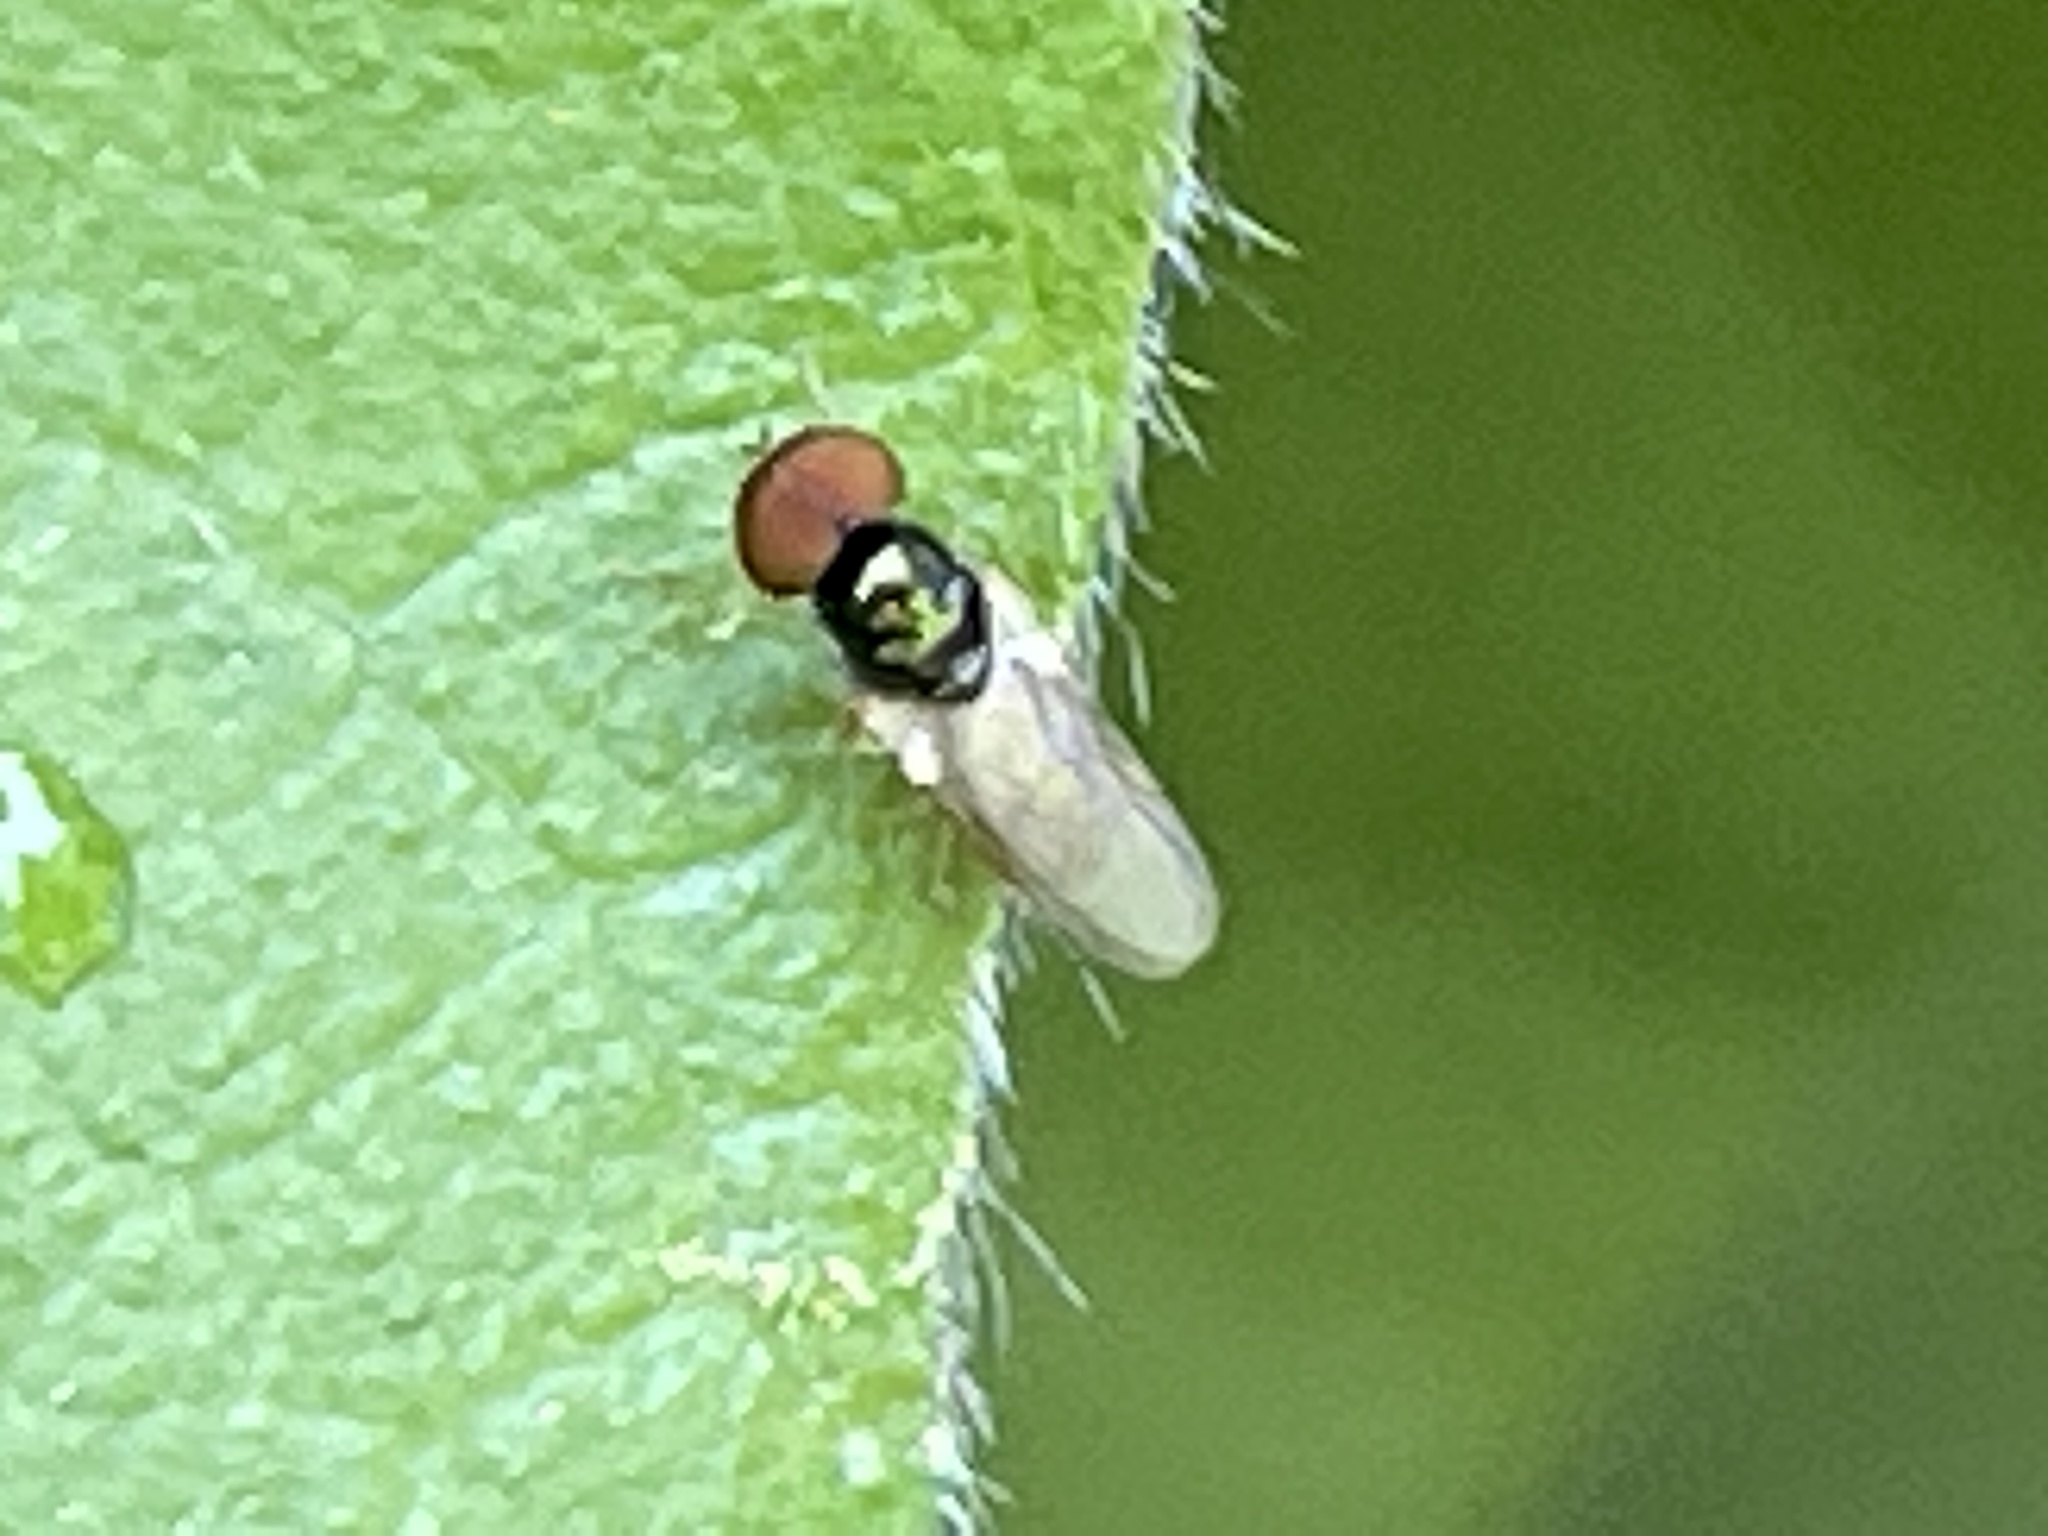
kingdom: Animalia
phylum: Arthropoda
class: Insecta
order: Diptera
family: Stratiomyidae
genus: Microchrysa
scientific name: Microchrysa flaviventris
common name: Soldier fly
